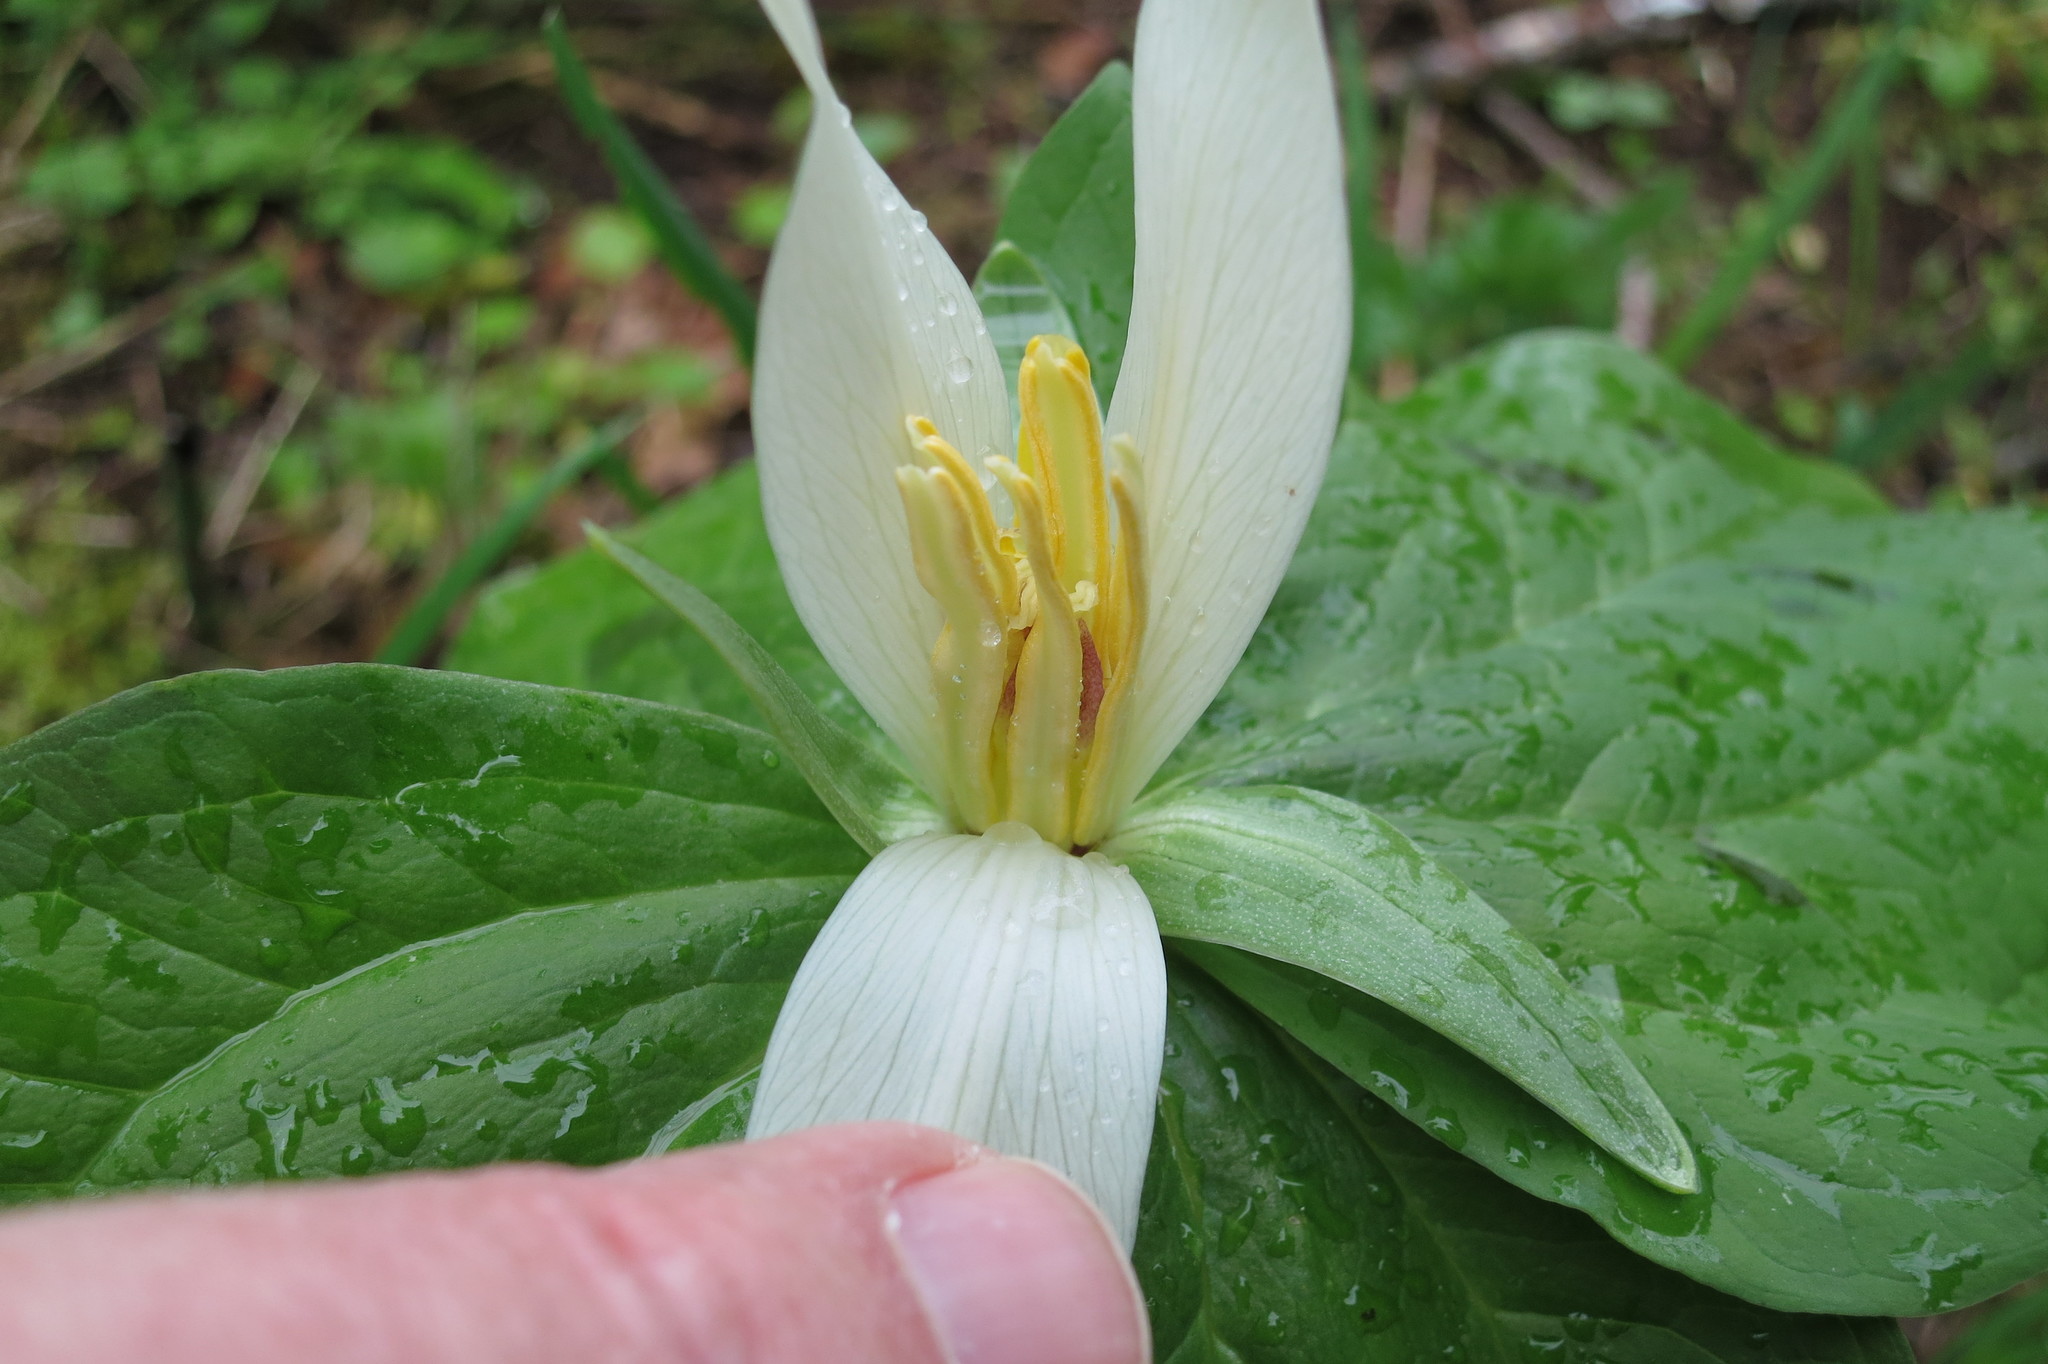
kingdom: Plantae
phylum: Tracheophyta
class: Liliopsida
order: Liliales
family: Melanthiaceae
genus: Trillium
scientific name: Trillium albidum
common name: Freeman's trillium
